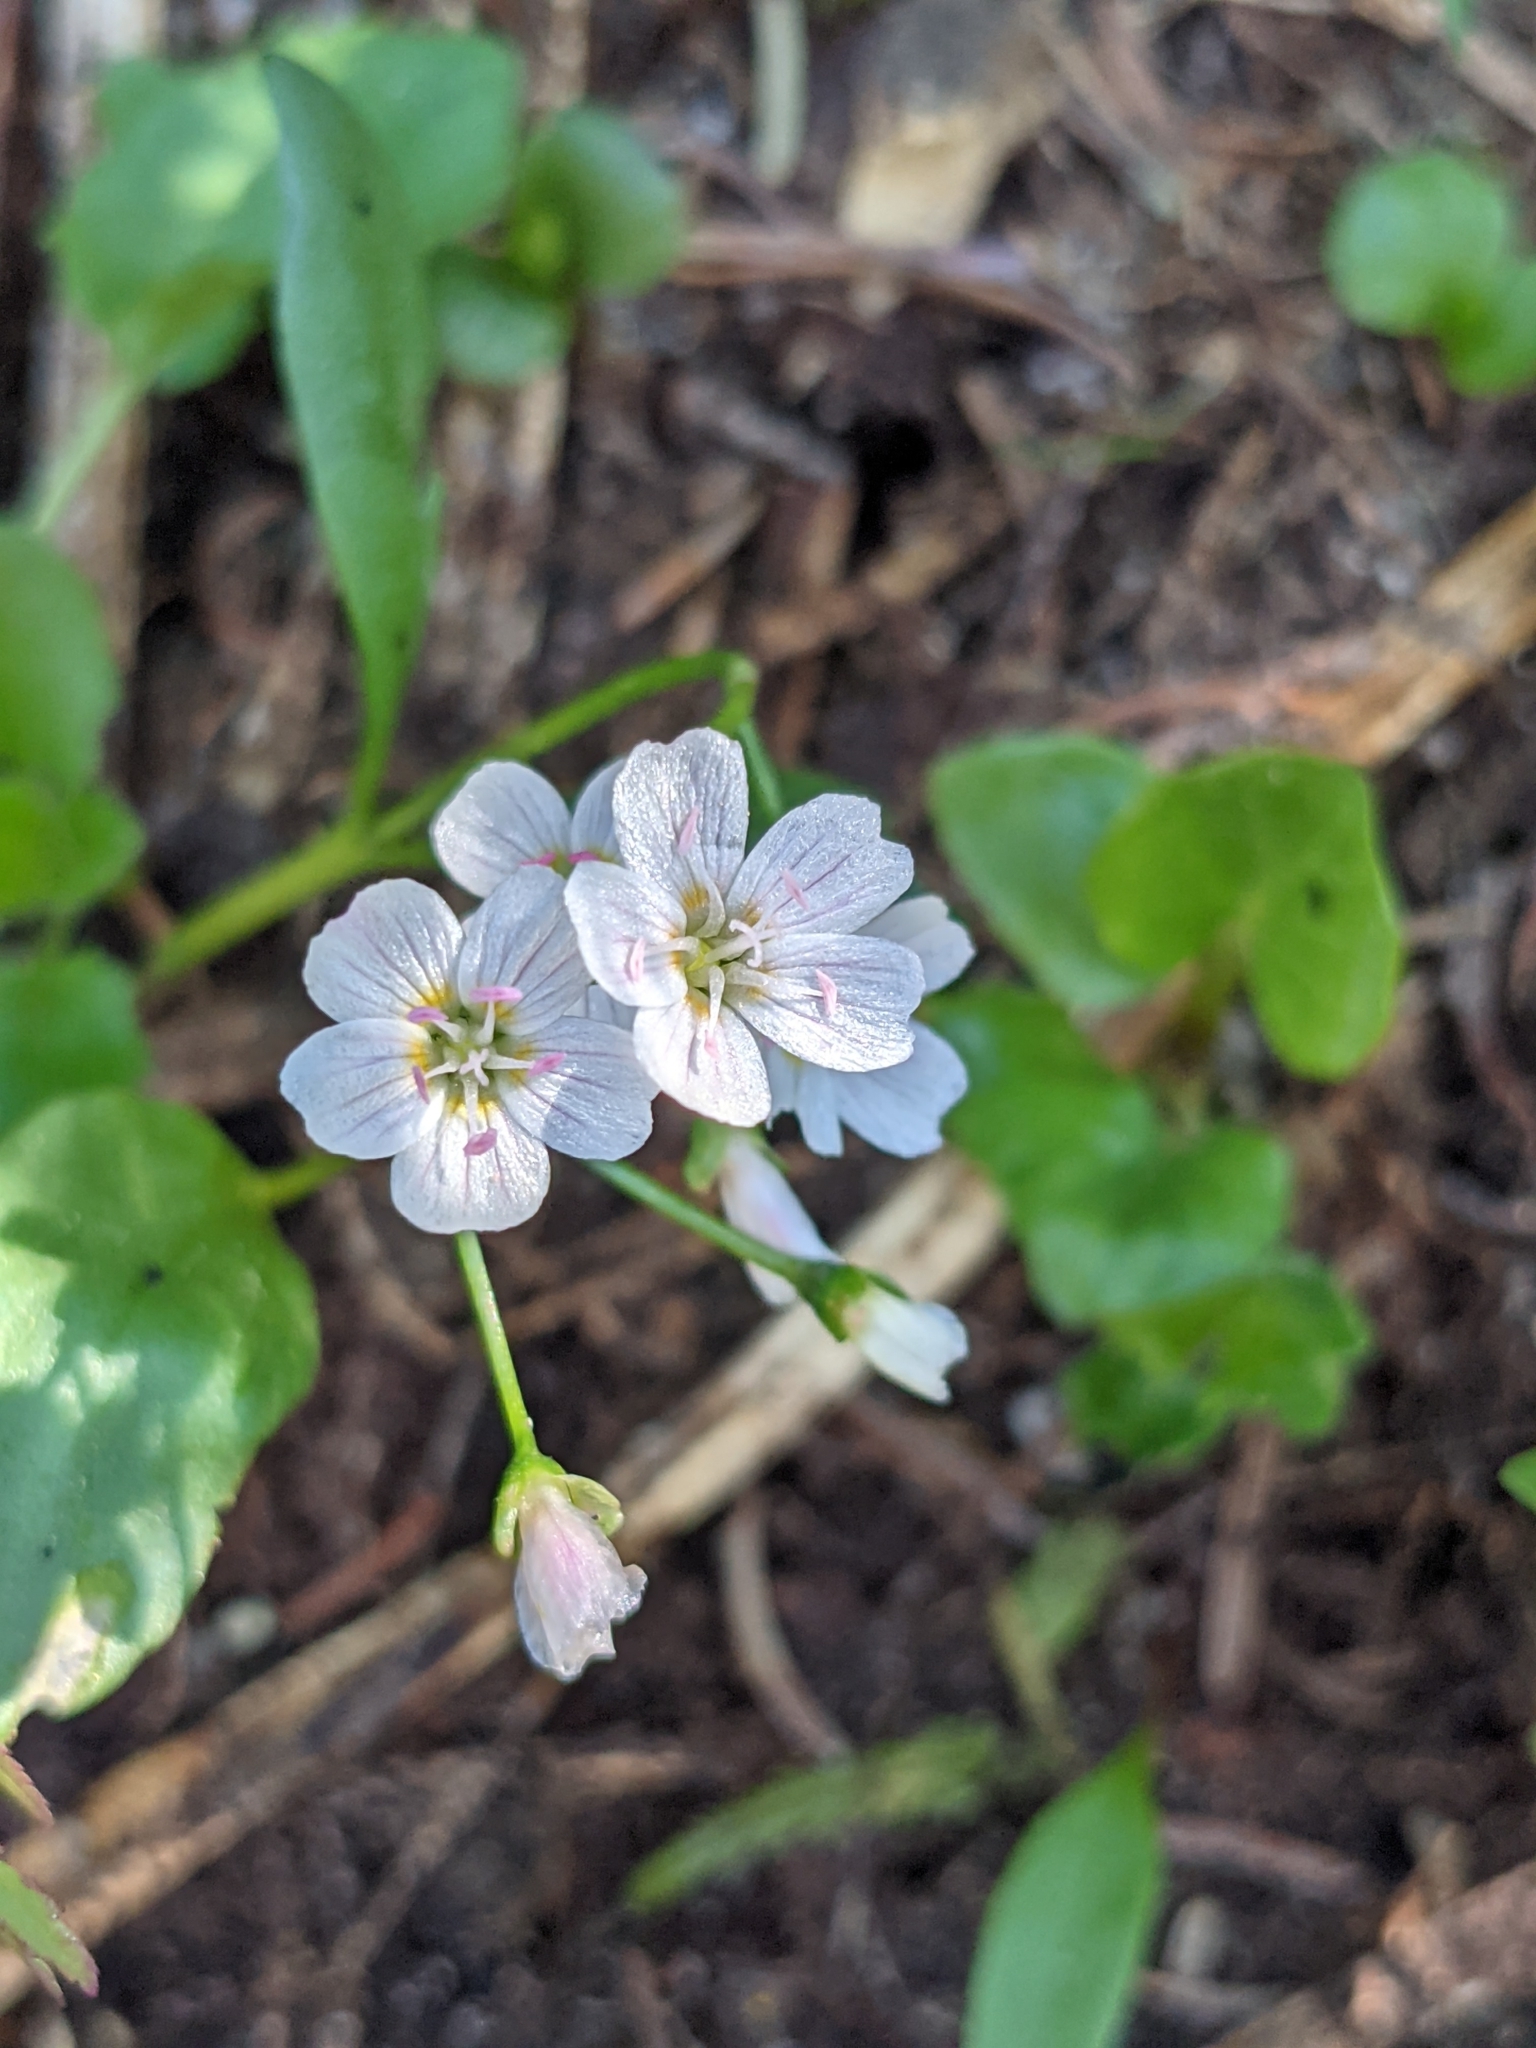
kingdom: Plantae
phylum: Tracheophyta
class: Magnoliopsida
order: Caryophyllales
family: Montiaceae
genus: Claytonia
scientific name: Claytonia lanceolata
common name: Western spring-beauty
